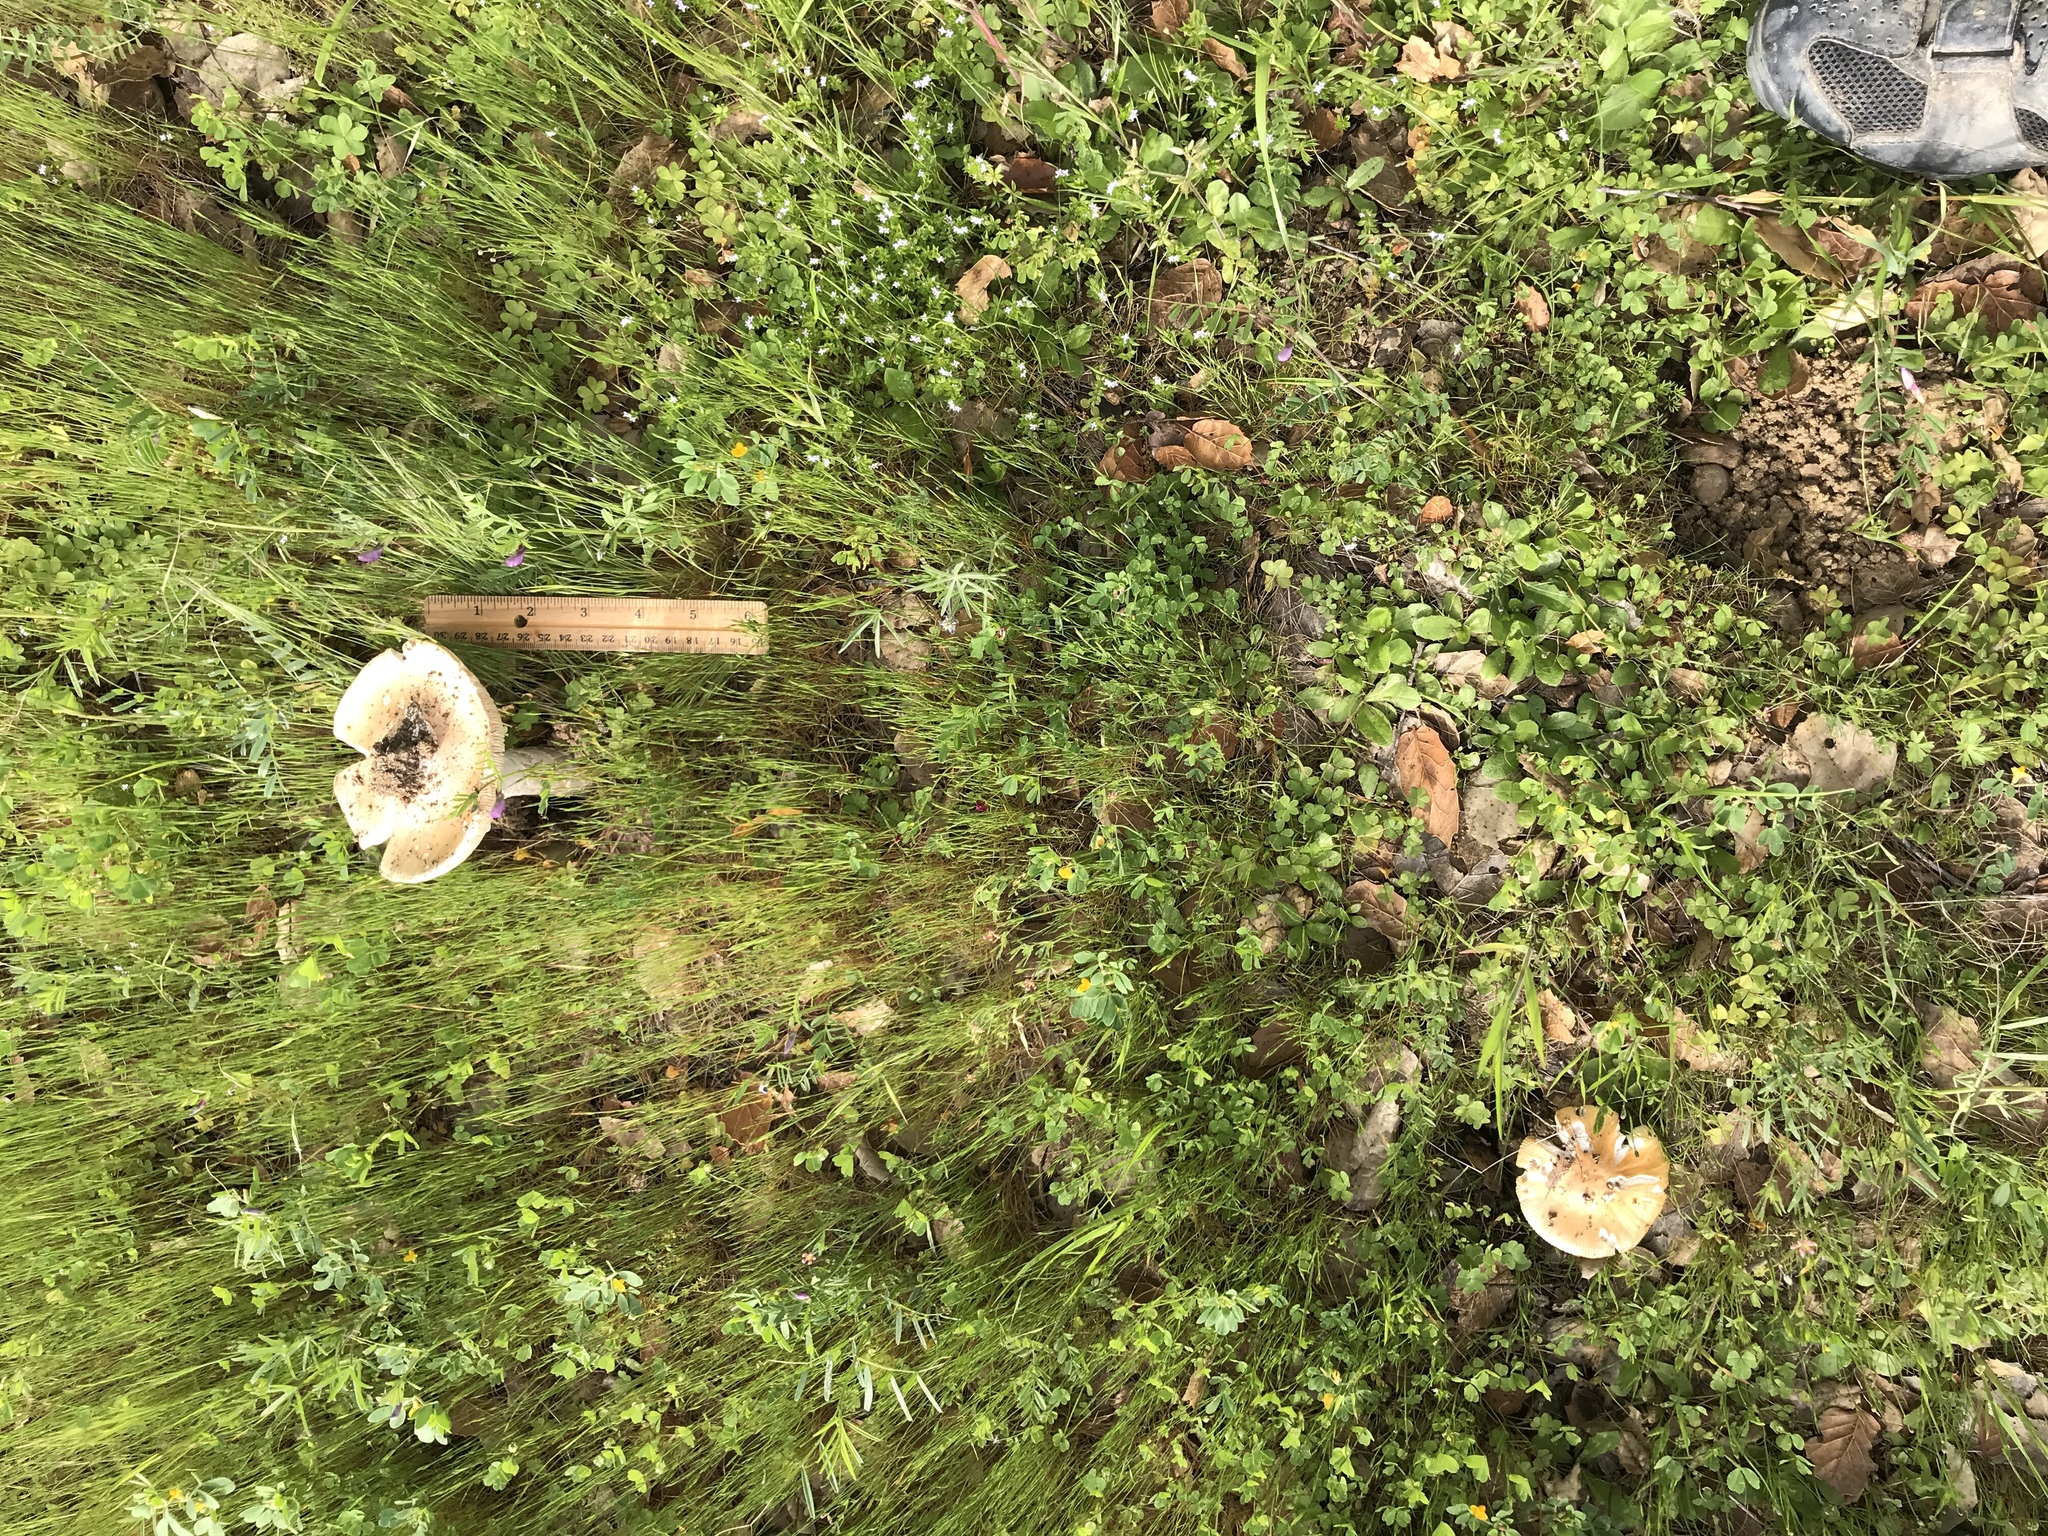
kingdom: Fungi
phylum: Basidiomycota
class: Agaricomycetes
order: Agaricales
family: Amanitaceae
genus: Amanita
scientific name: Amanita velosa
